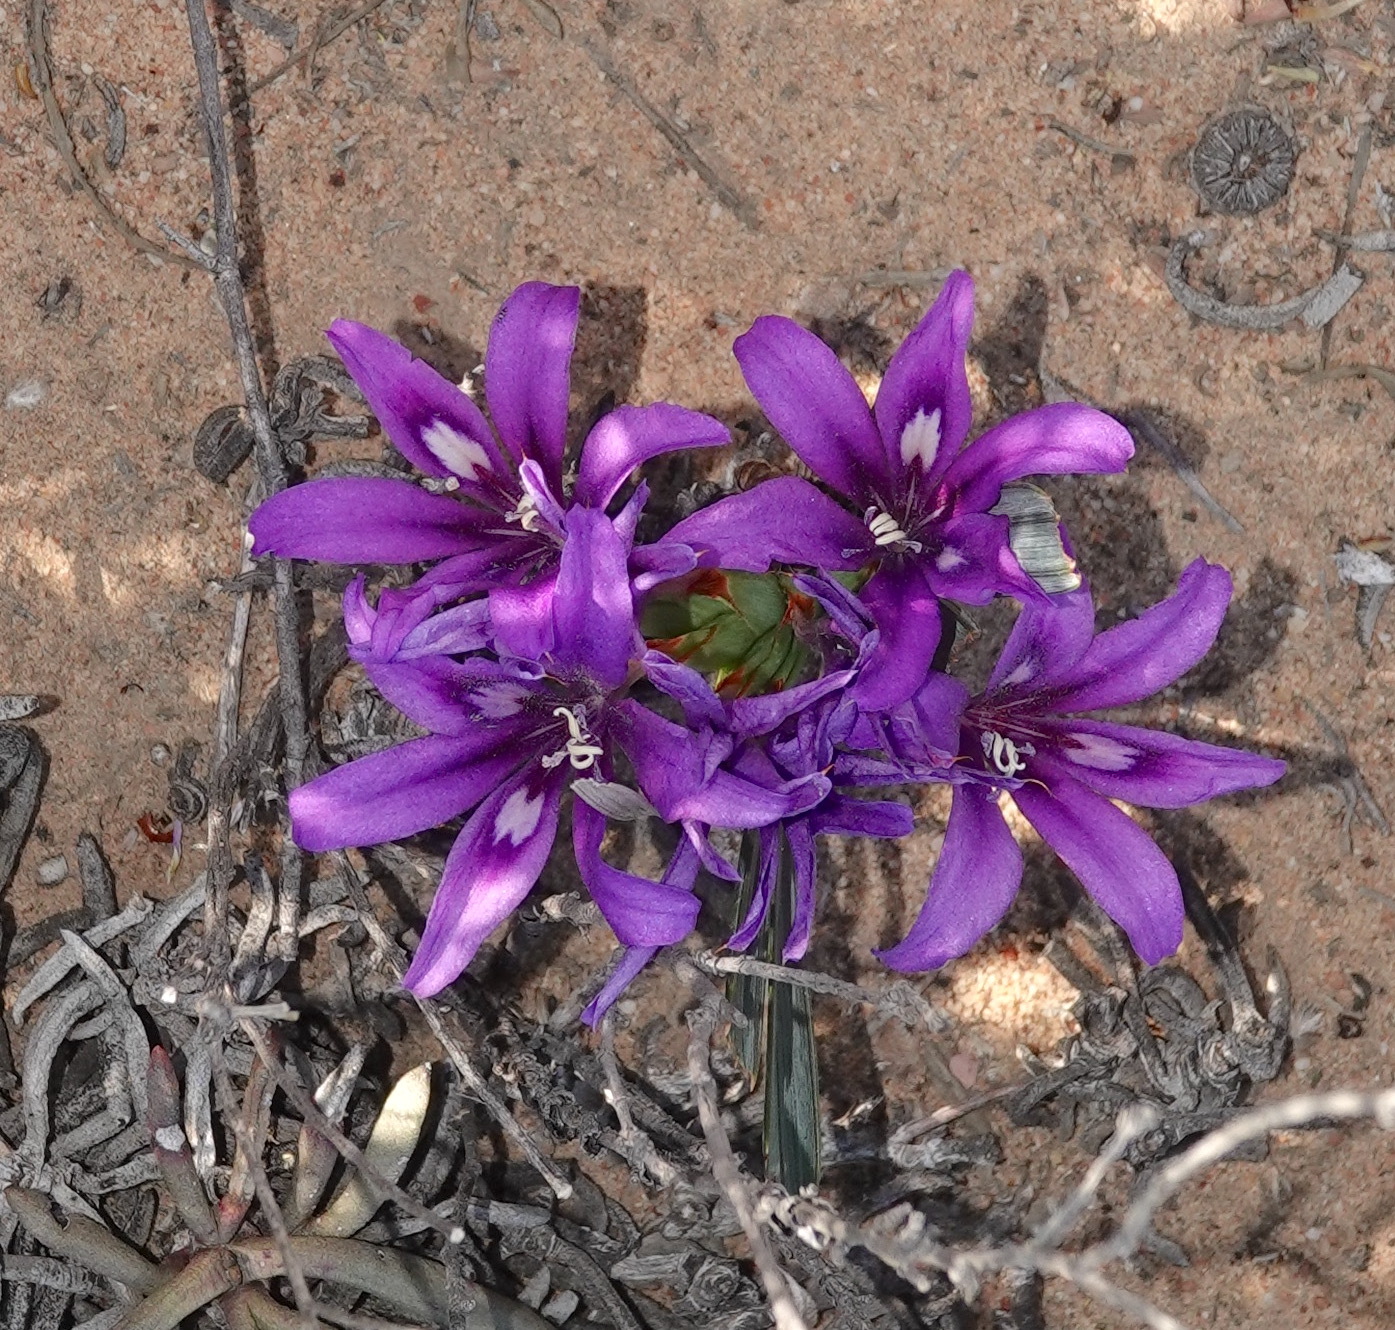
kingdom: Plantae
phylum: Tracheophyta
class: Liliopsida
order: Asparagales
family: Iridaceae
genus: Babiana
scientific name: Babiana cuneata
